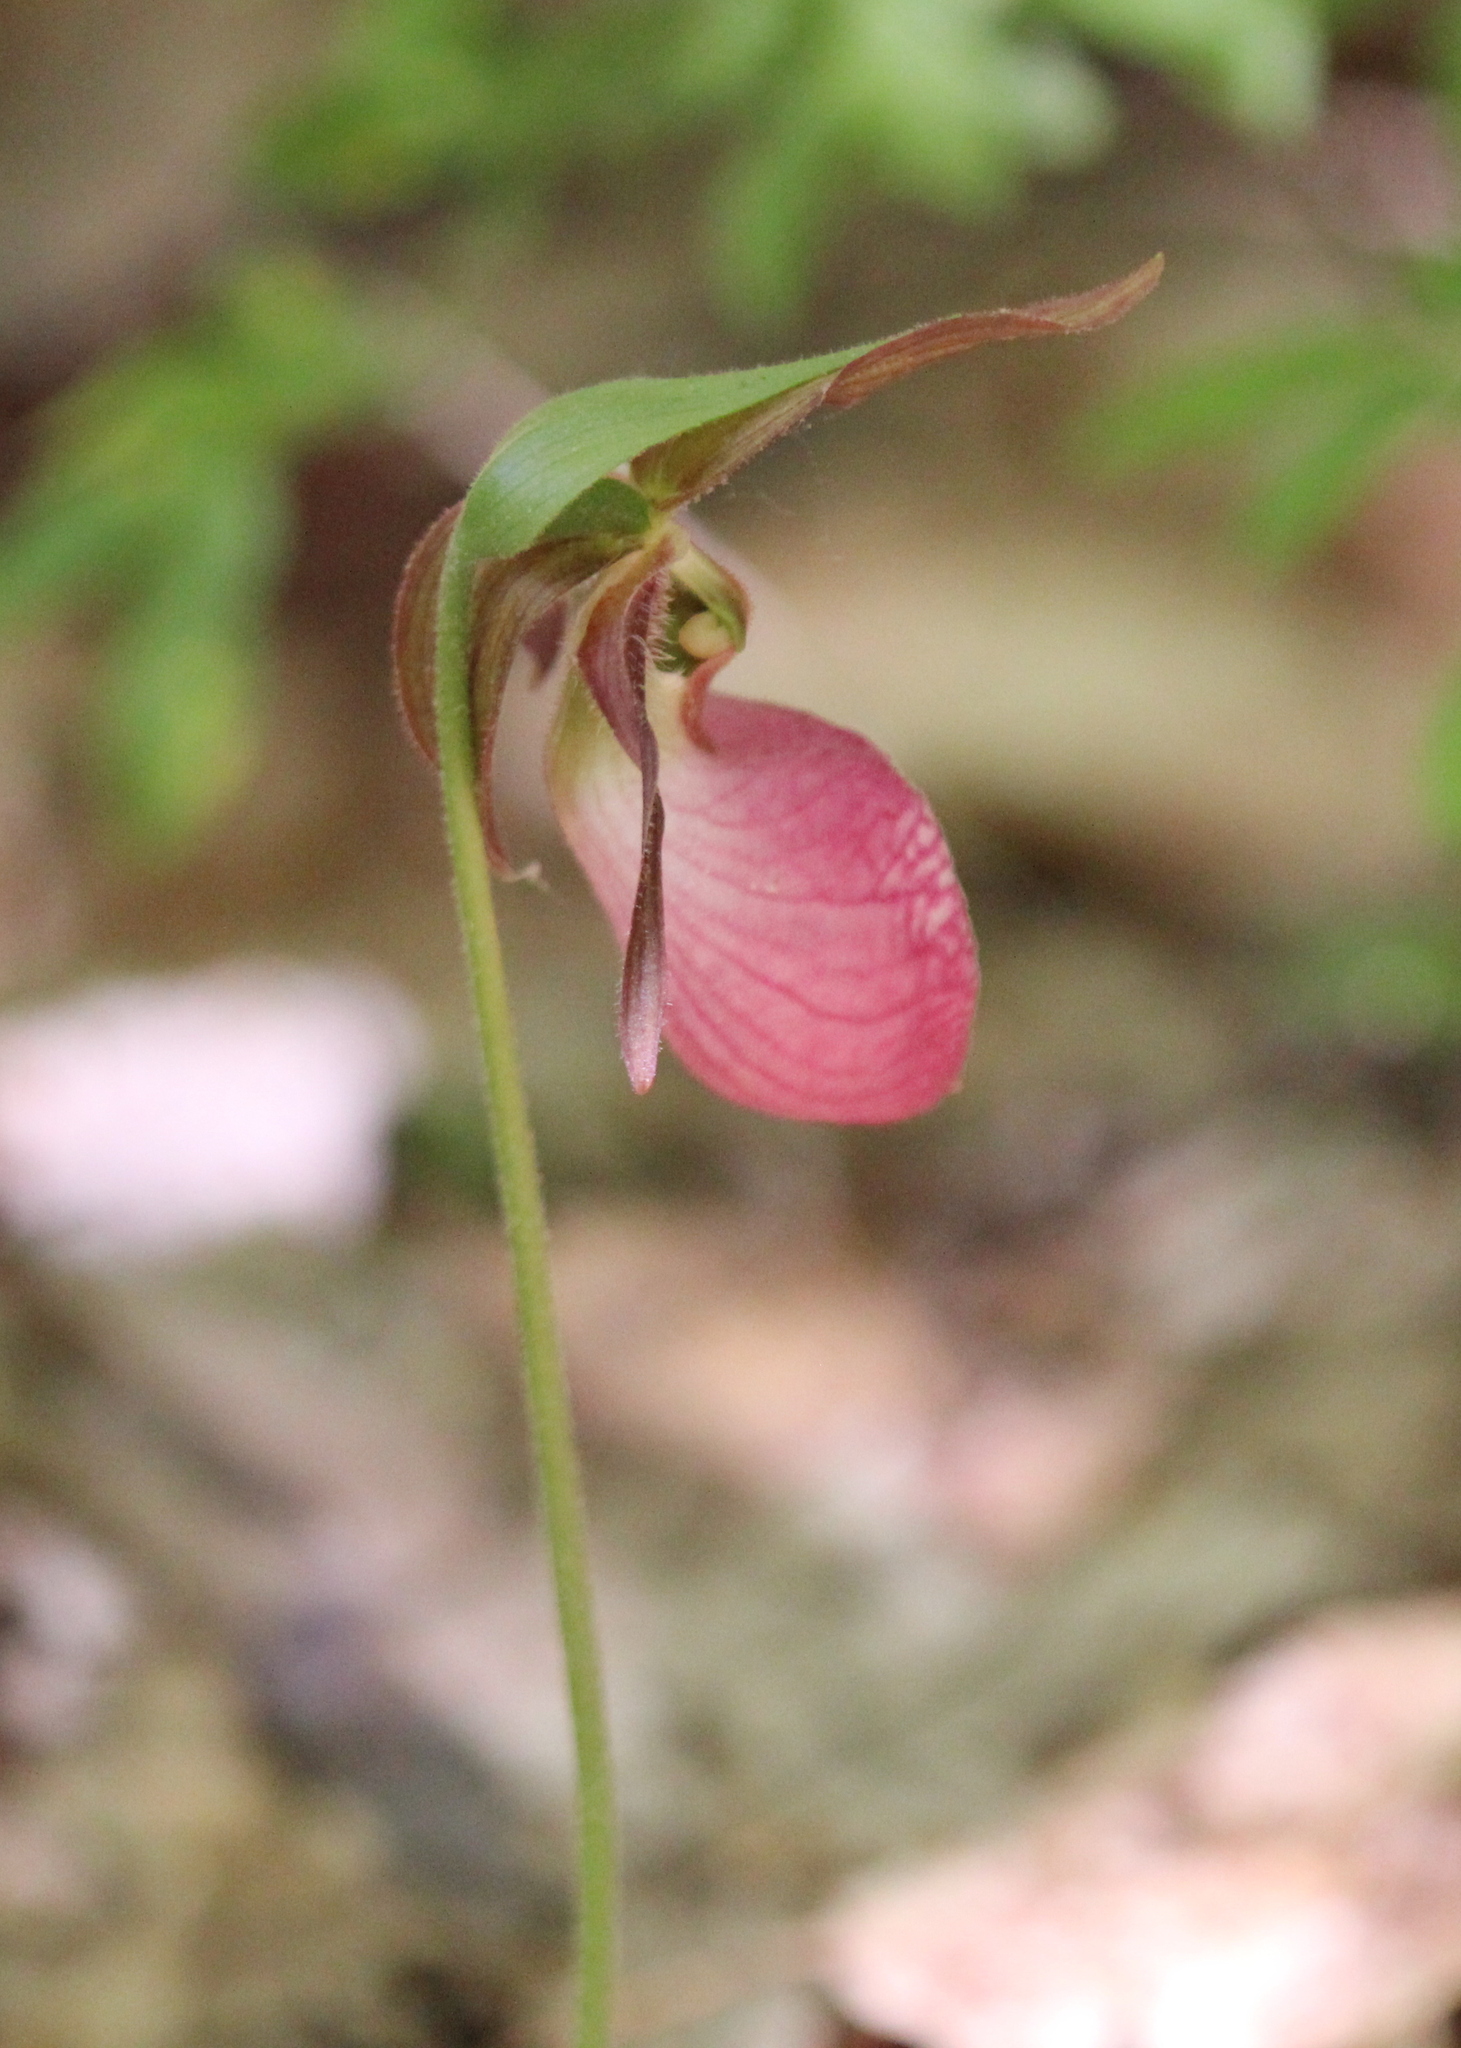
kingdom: Plantae
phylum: Tracheophyta
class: Liliopsida
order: Asparagales
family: Orchidaceae
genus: Cypripedium
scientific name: Cypripedium acaule
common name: Pink lady's-slipper
